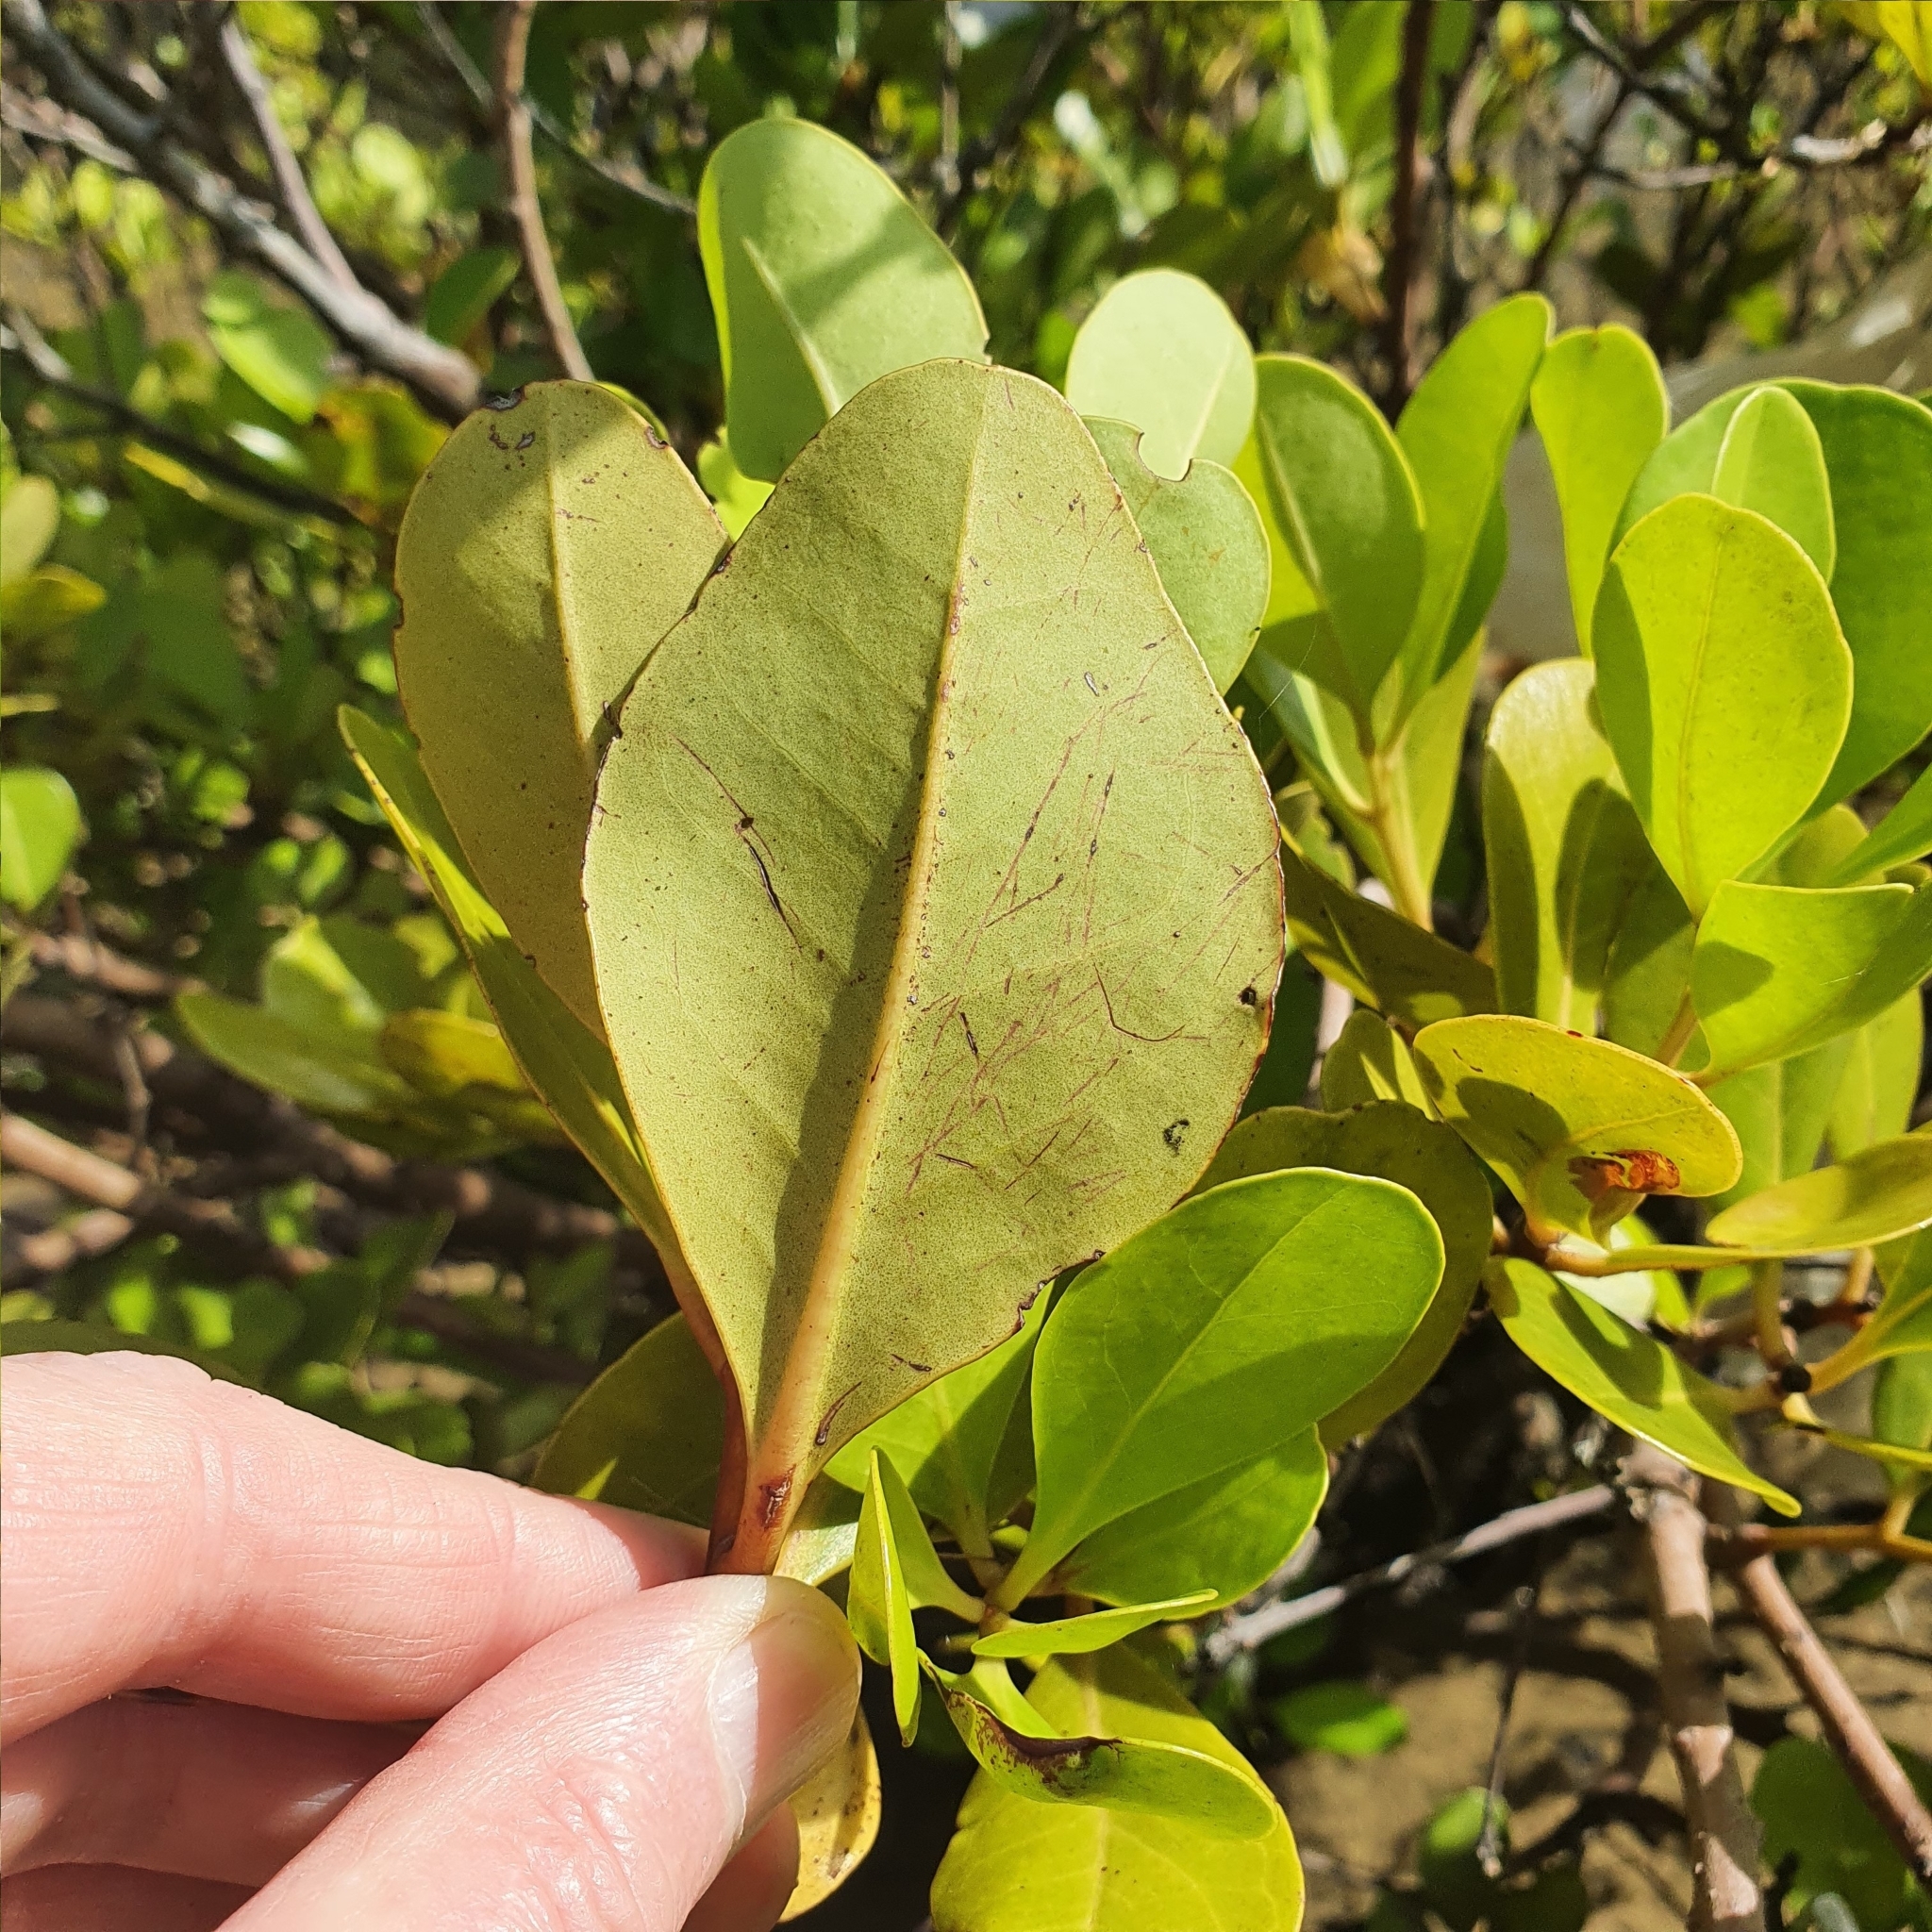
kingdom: Plantae
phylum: Tracheophyta
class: Magnoliopsida
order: Ericales
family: Primulaceae
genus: Aegiceras
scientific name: Aegiceras corniculatum
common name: River mangrove
